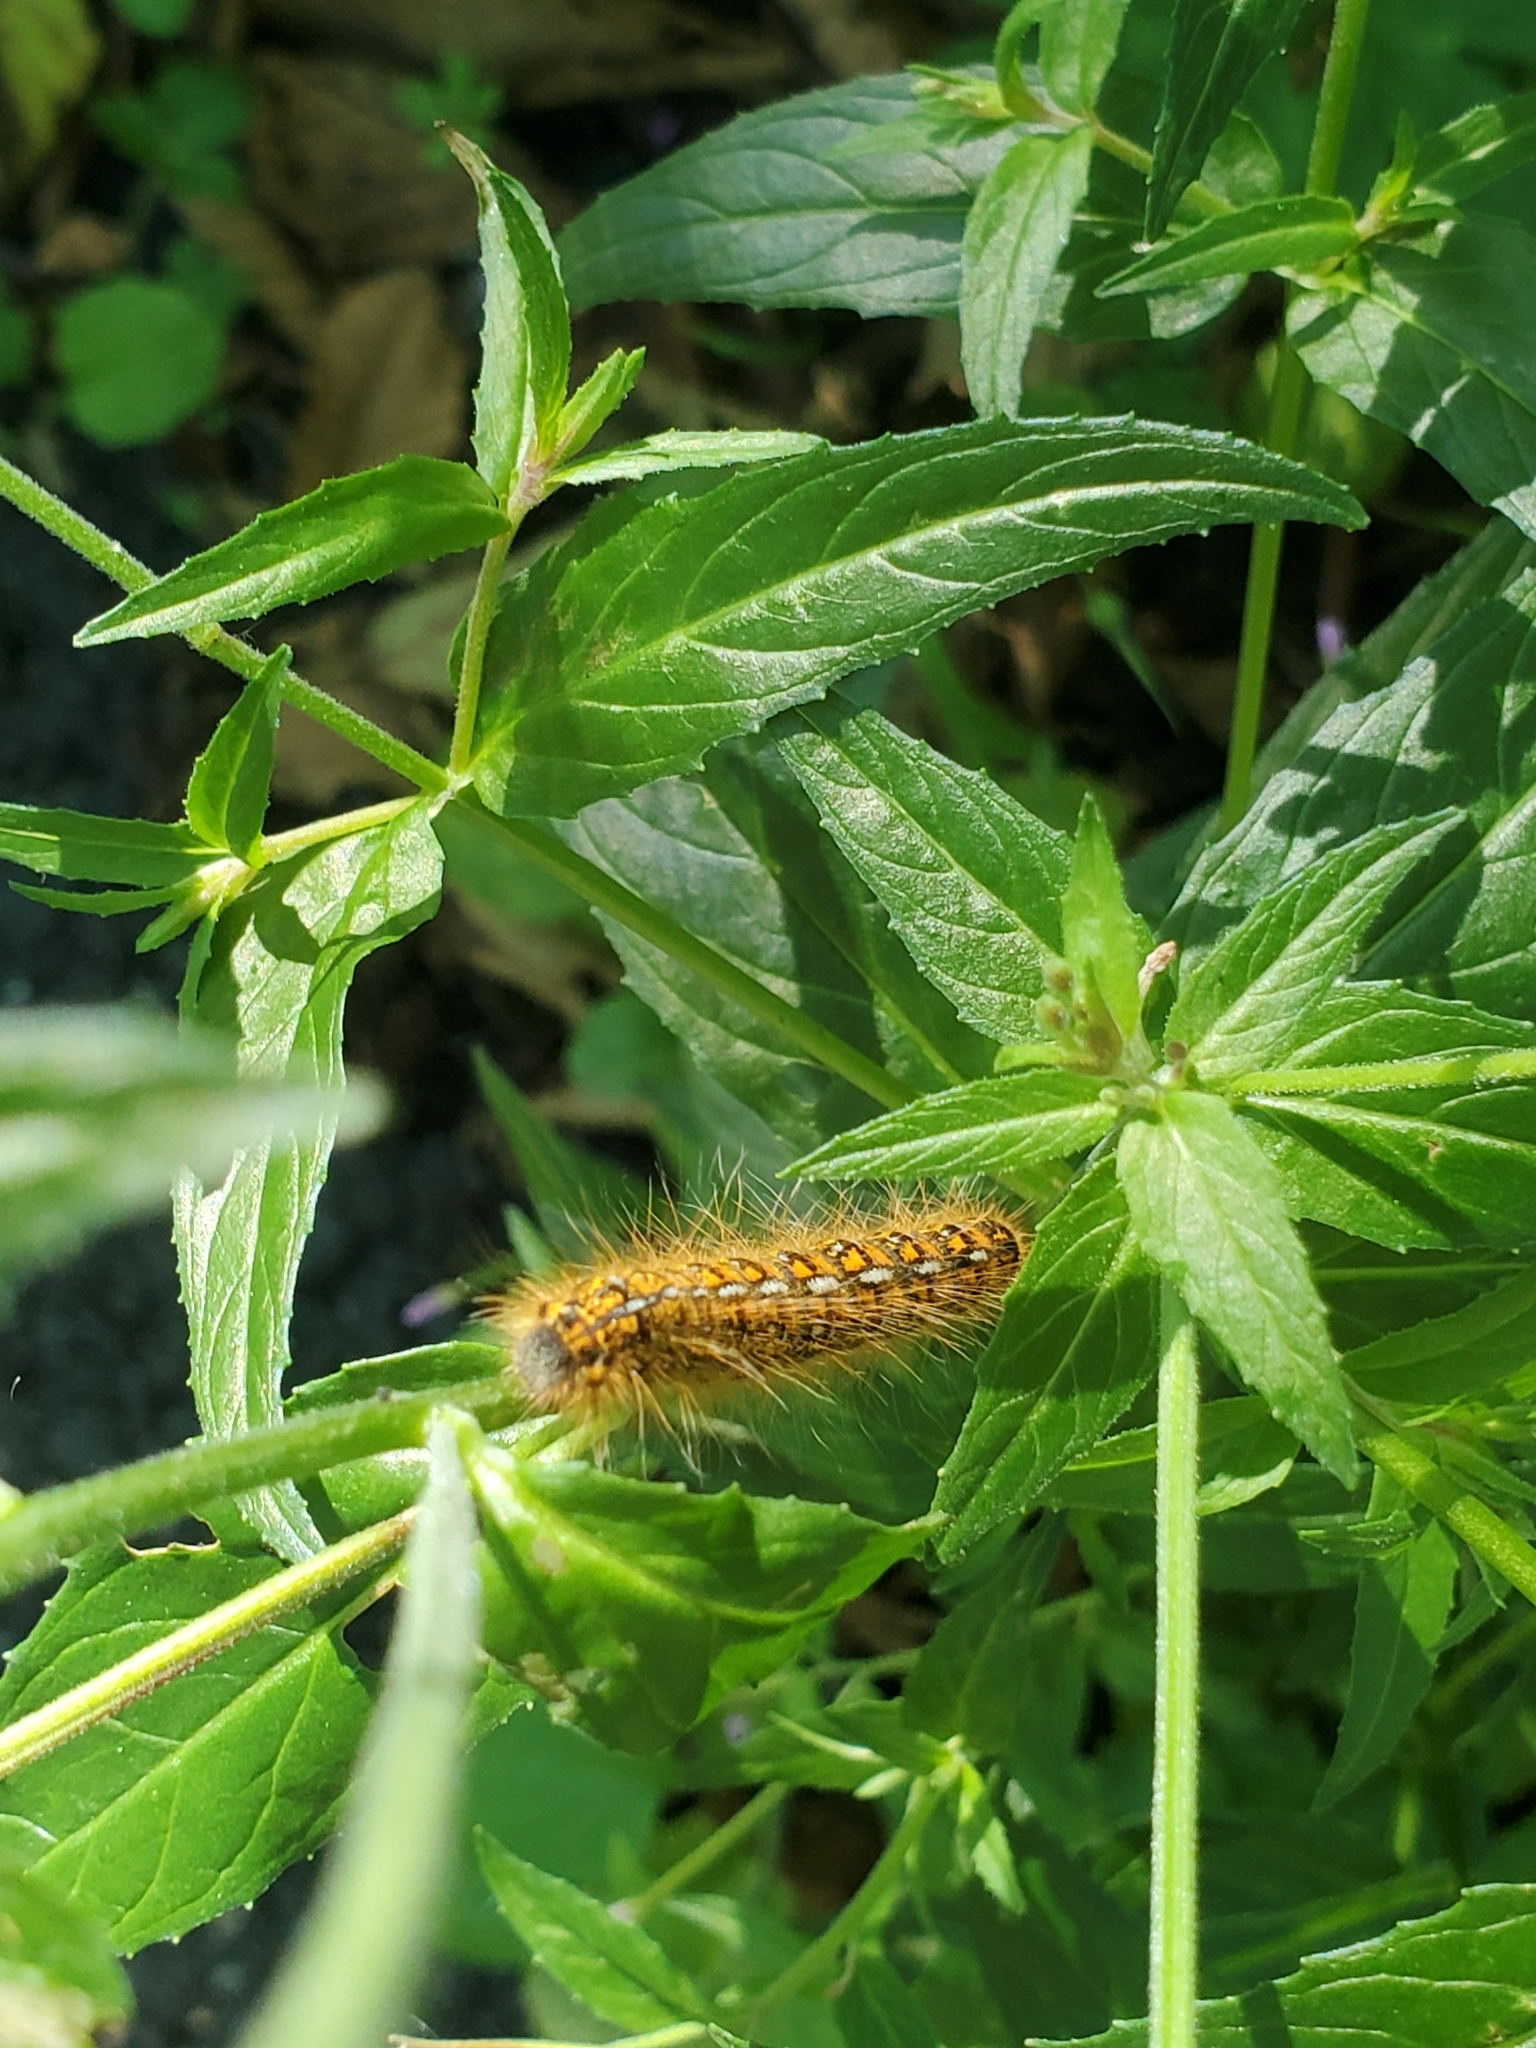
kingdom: Animalia
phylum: Arthropoda
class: Insecta
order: Lepidoptera
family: Lasiocampidae
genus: Malacosoma
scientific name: Malacosoma californica
